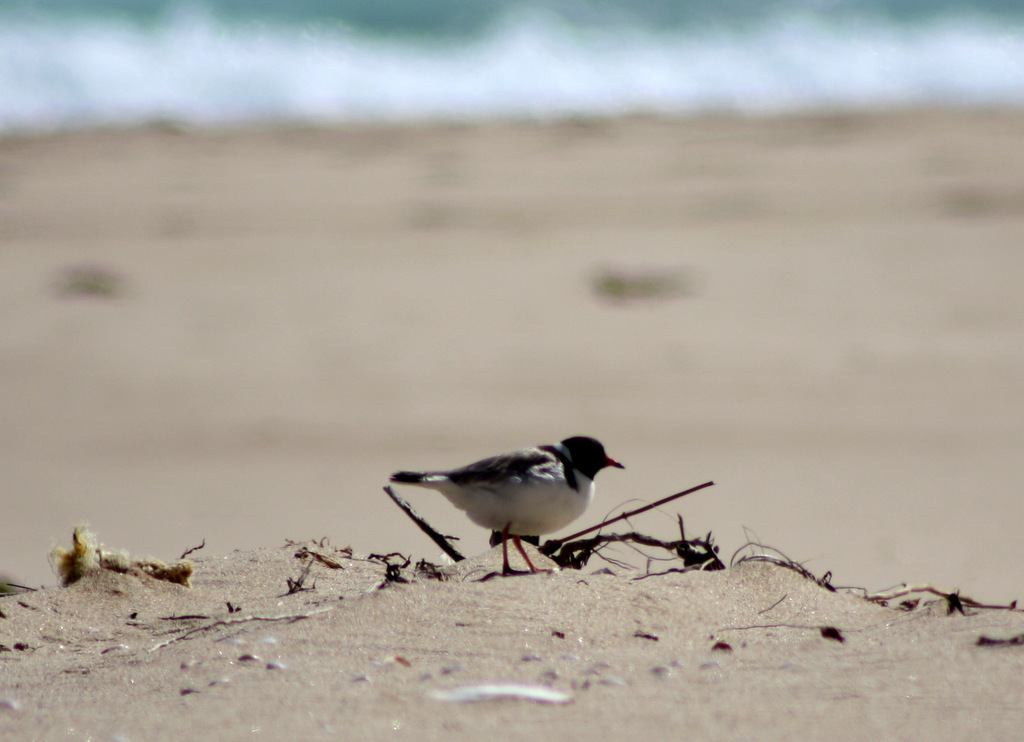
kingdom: Animalia
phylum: Chordata
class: Aves
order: Charadriiformes
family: Charadriidae
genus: Thinornis
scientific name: Thinornis cucullatus
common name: Hooded dotterel
